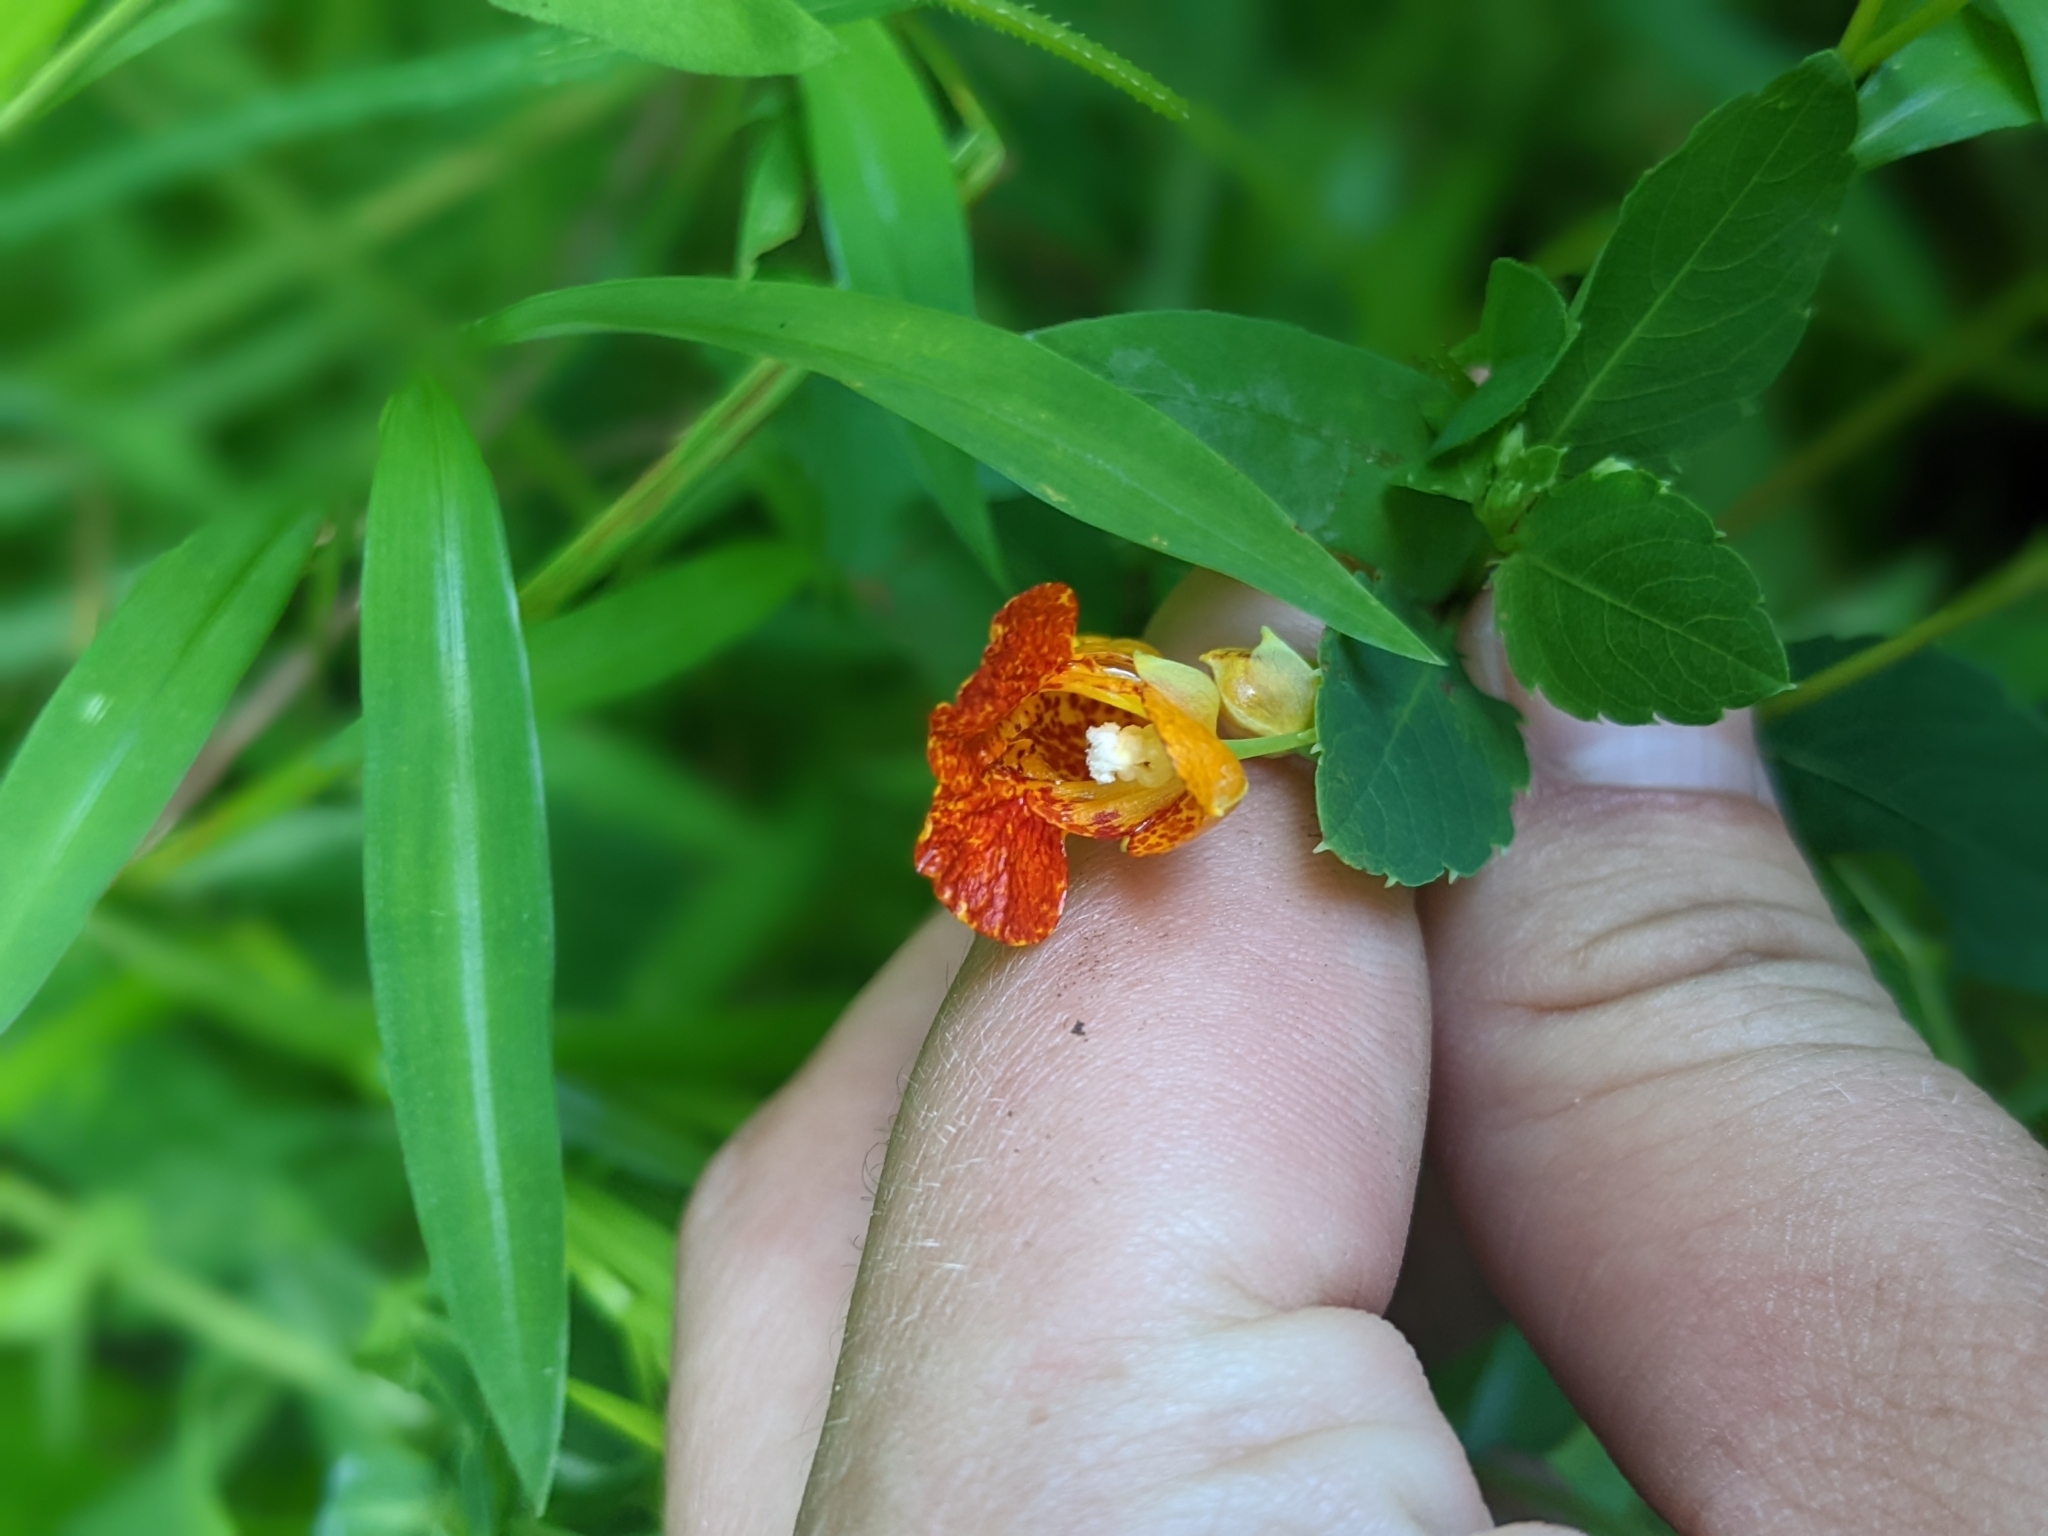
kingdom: Plantae
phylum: Tracheophyta
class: Magnoliopsida
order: Ericales
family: Balsaminaceae
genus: Impatiens
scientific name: Impatiens capensis
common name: Orange balsam
